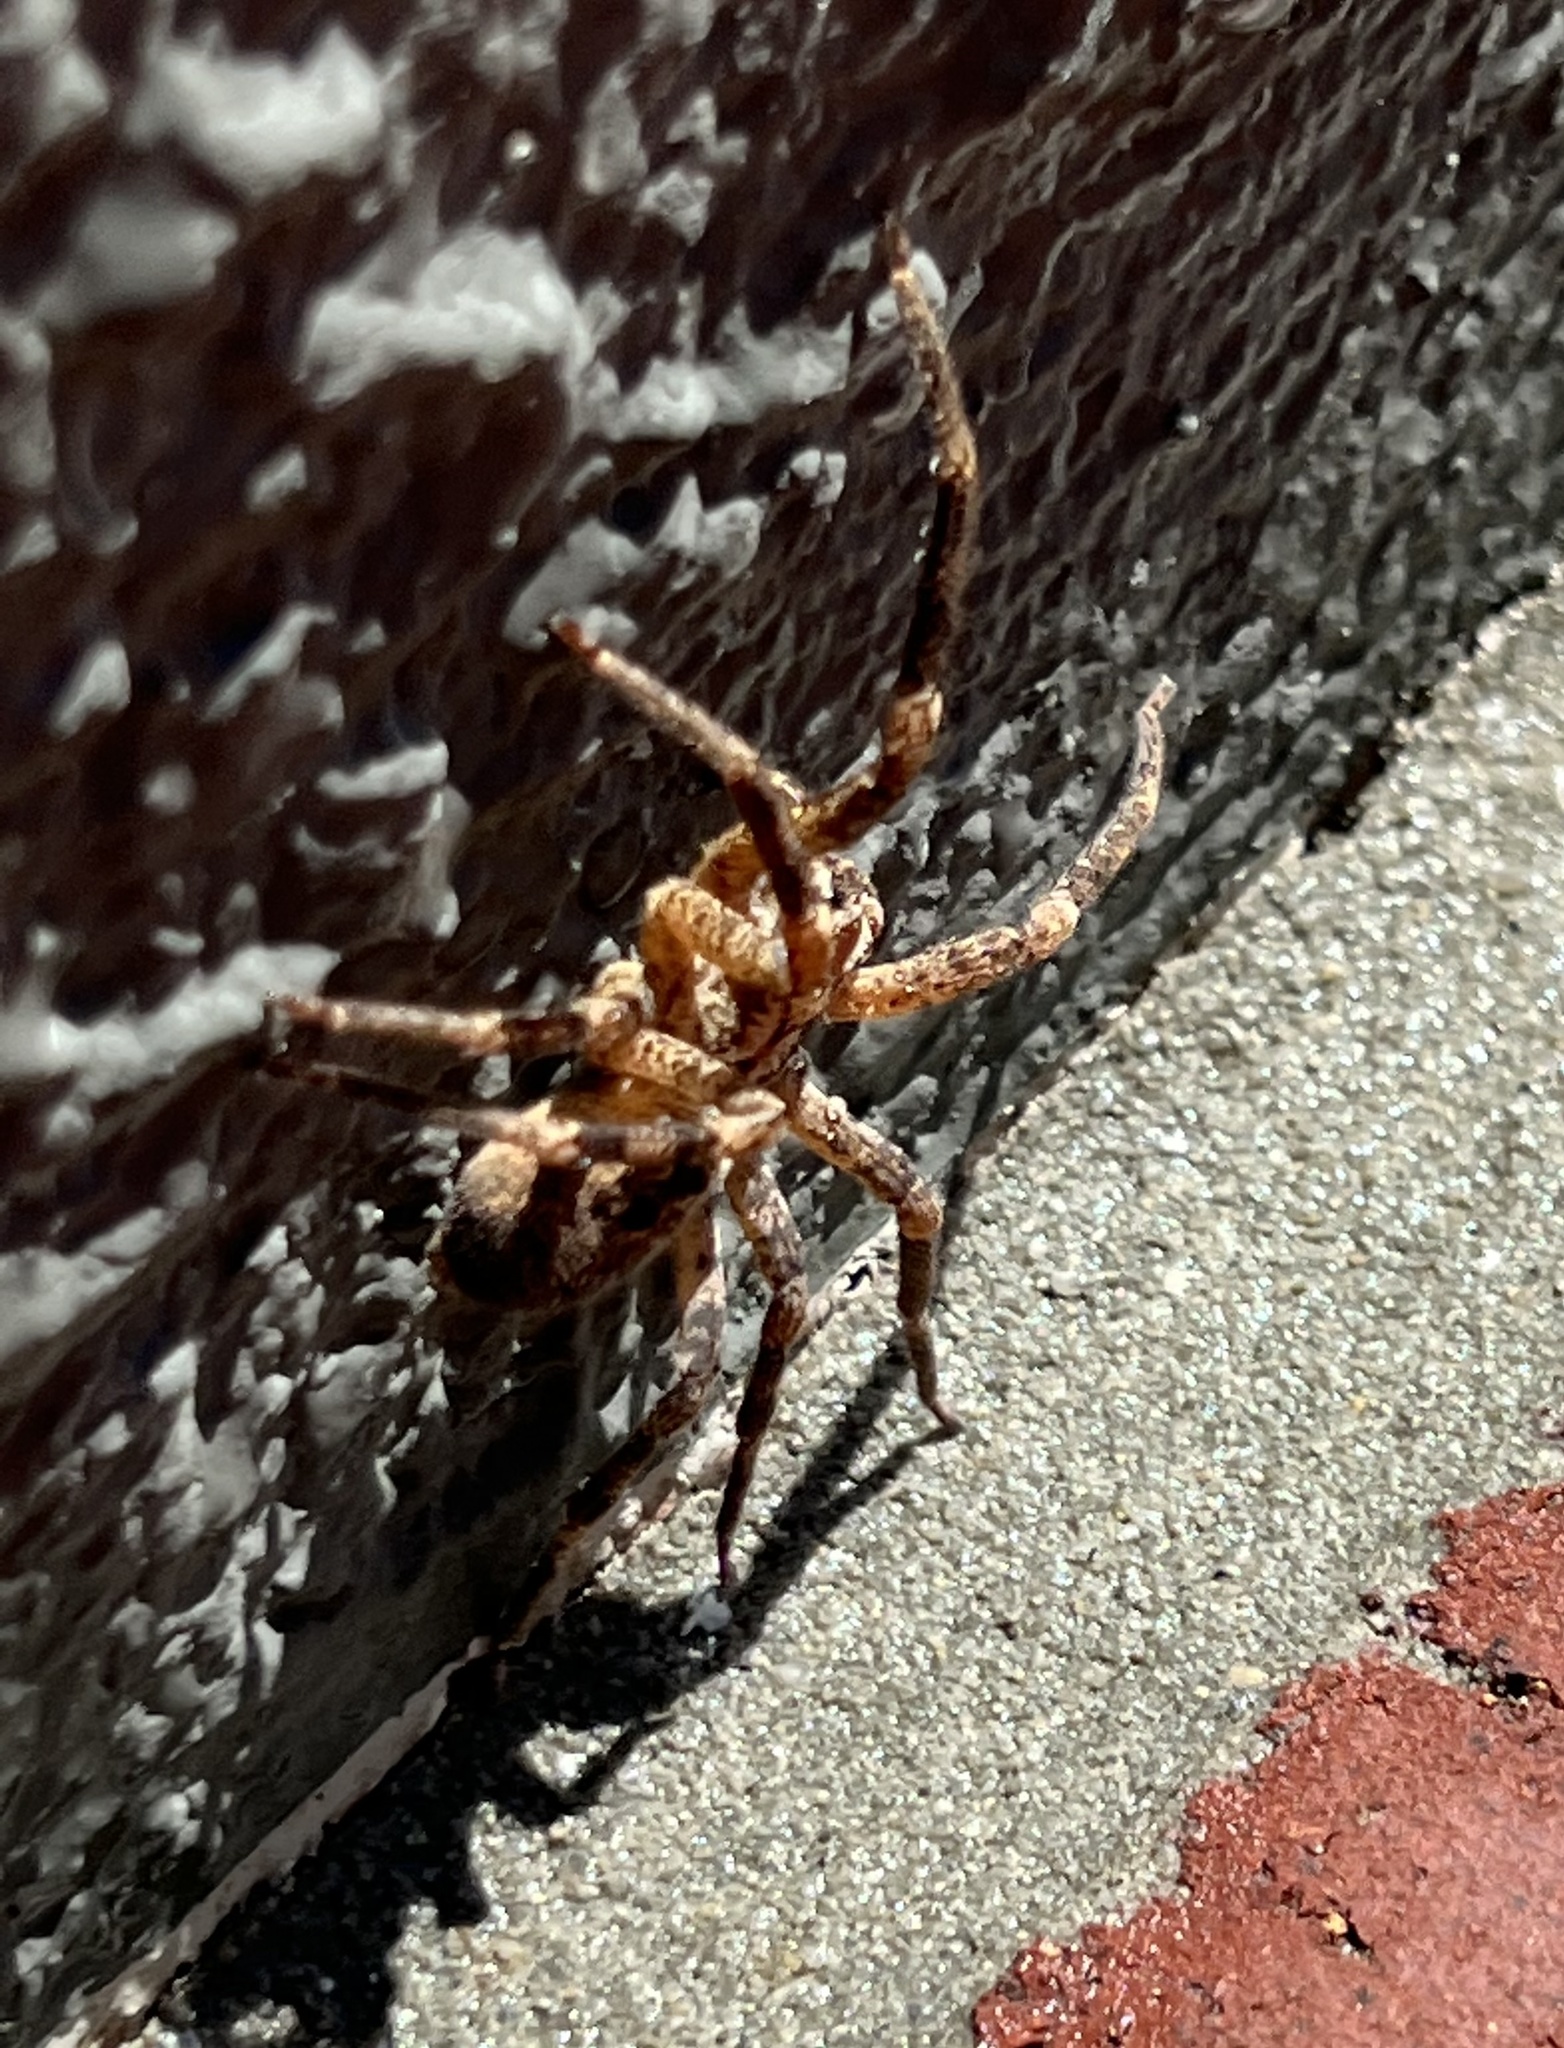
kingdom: Animalia
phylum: Arthropoda
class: Arachnida
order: Araneae
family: Zoropsidae
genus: Zoropsis
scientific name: Zoropsis spinimana
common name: Zoropsid spider
